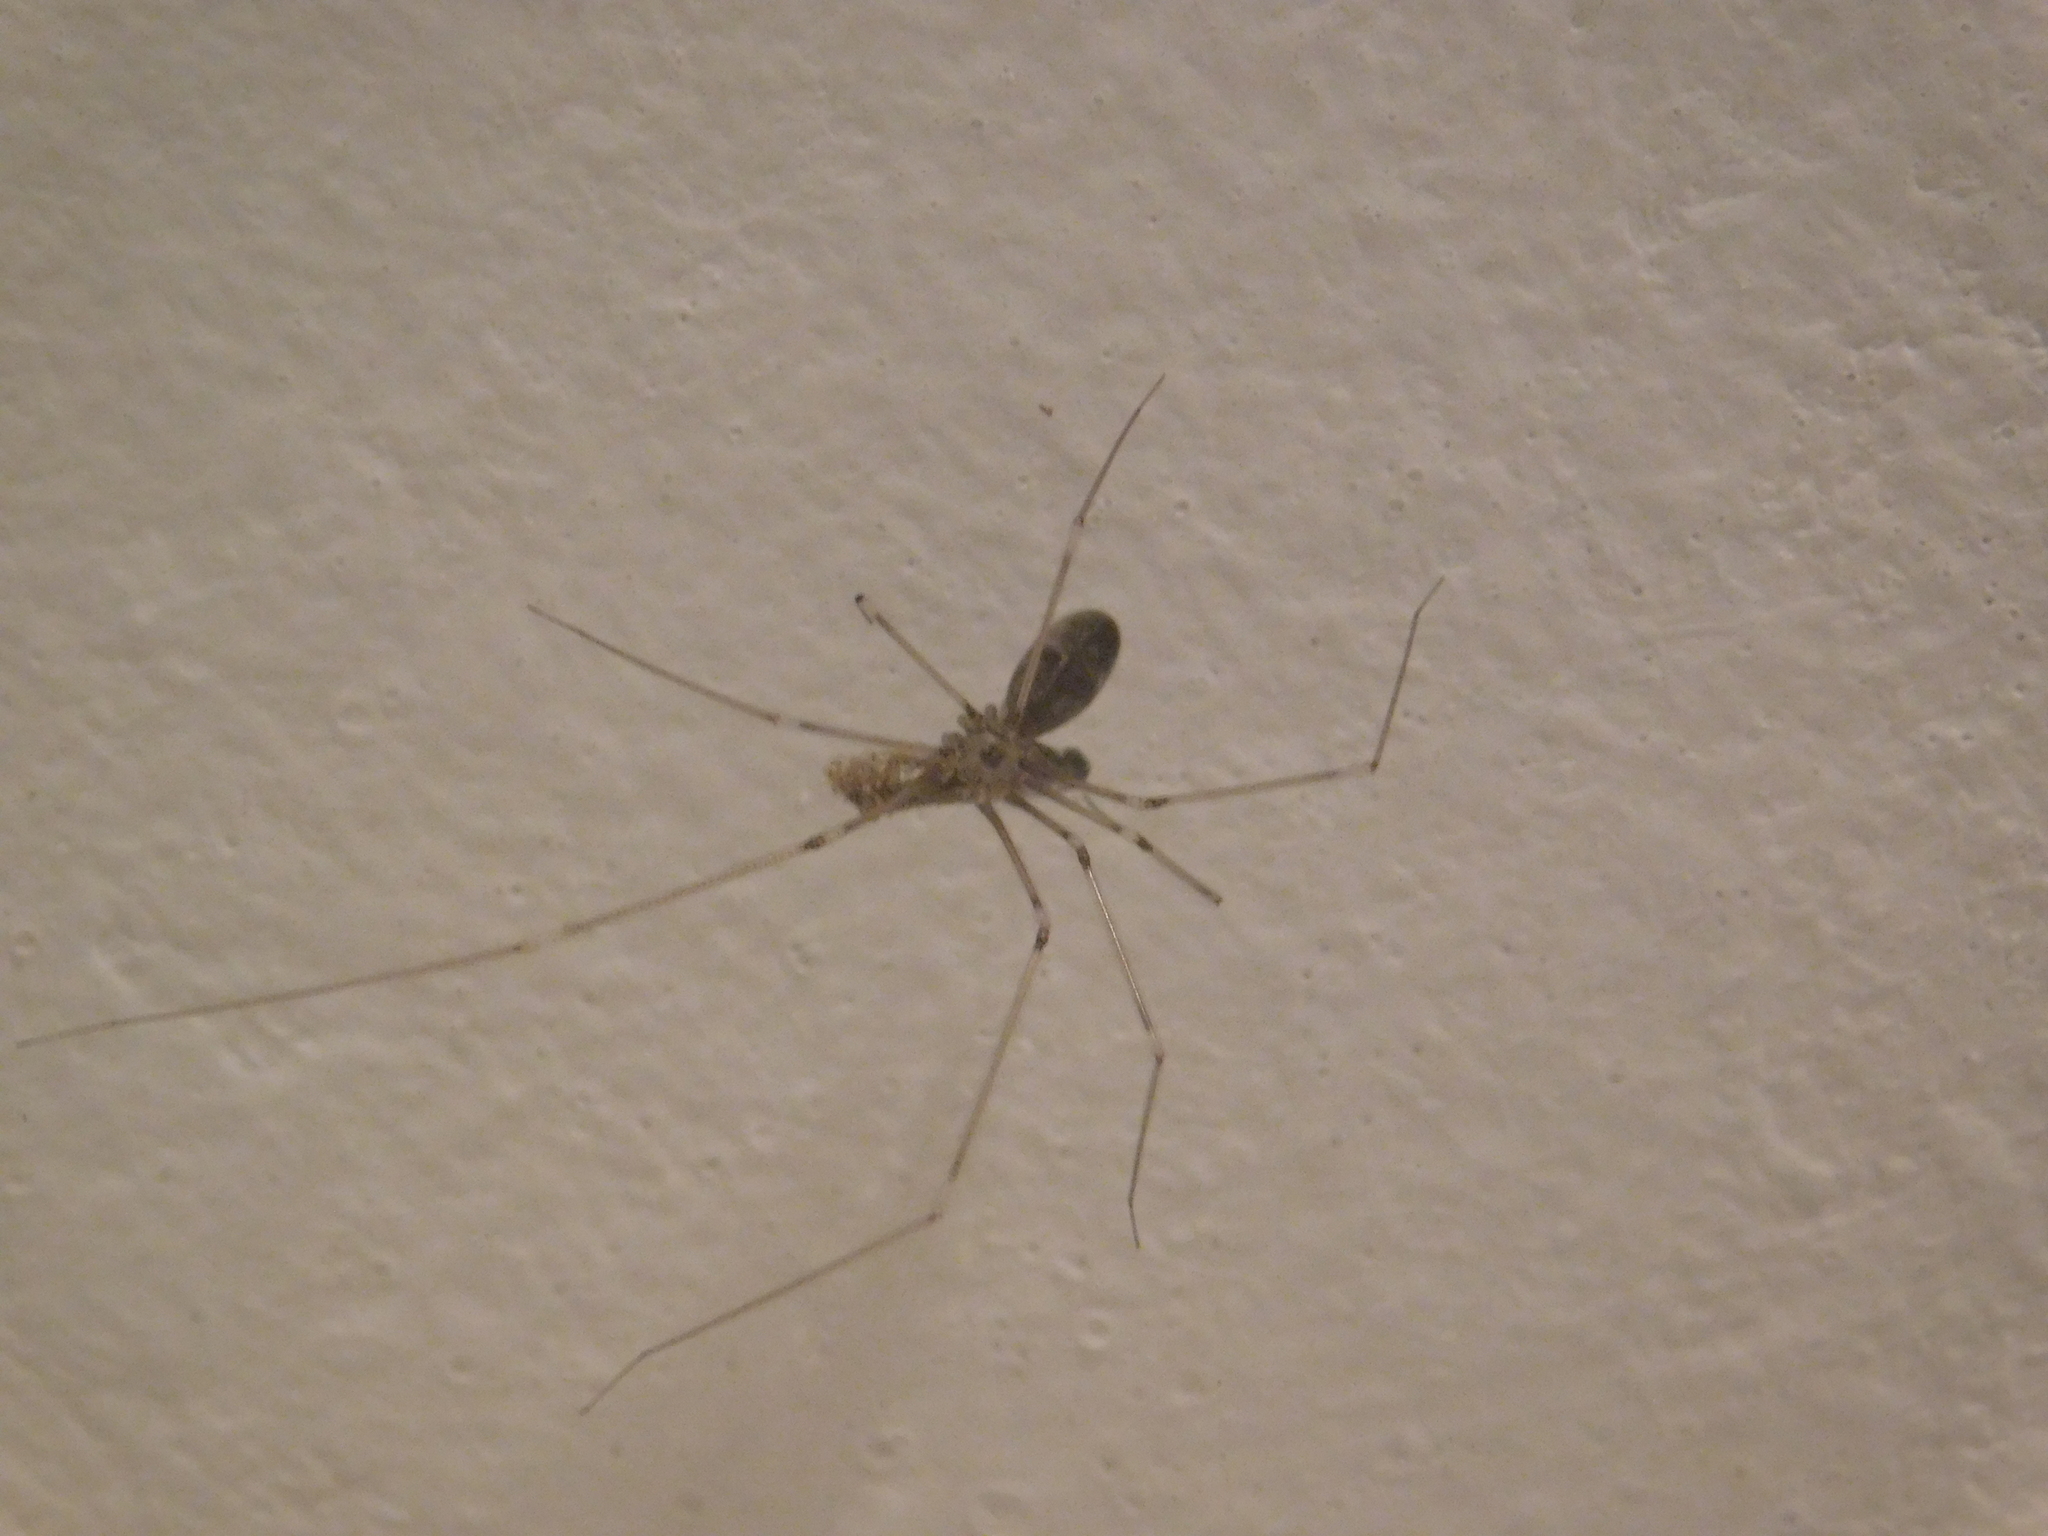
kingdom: Animalia
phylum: Arthropoda
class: Arachnida
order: Araneae
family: Pholcidae
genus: Pholcus
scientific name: Pholcus phalangioides
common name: Longbodied cellar spider
